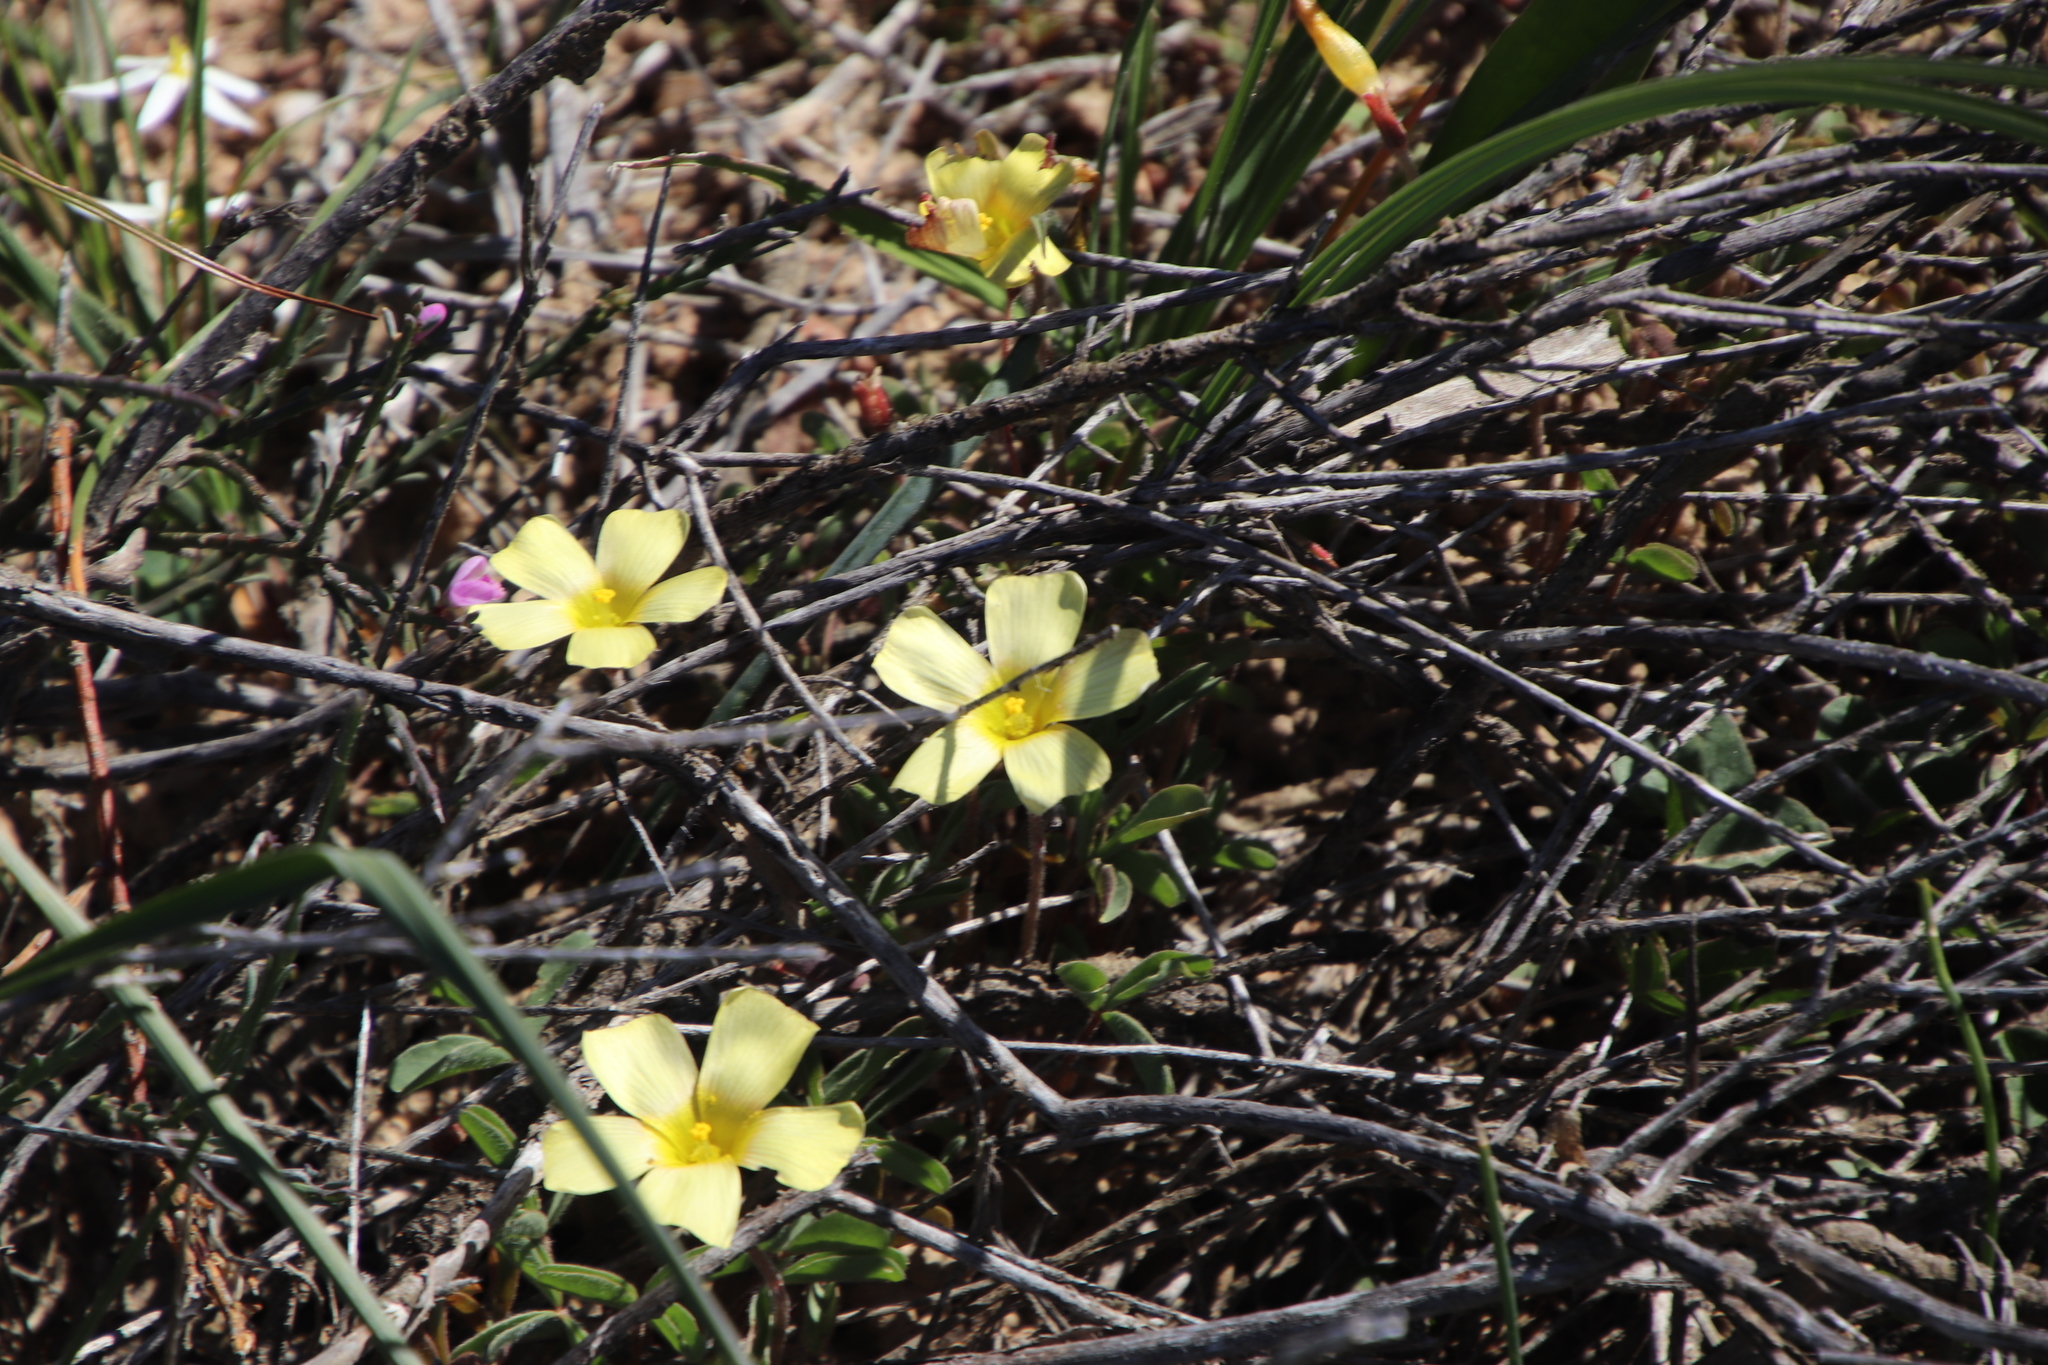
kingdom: Plantae
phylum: Tracheophyta
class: Magnoliopsida
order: Oxalidales
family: Oxalidaceae
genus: Oxalis
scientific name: Oxalis obtusa
